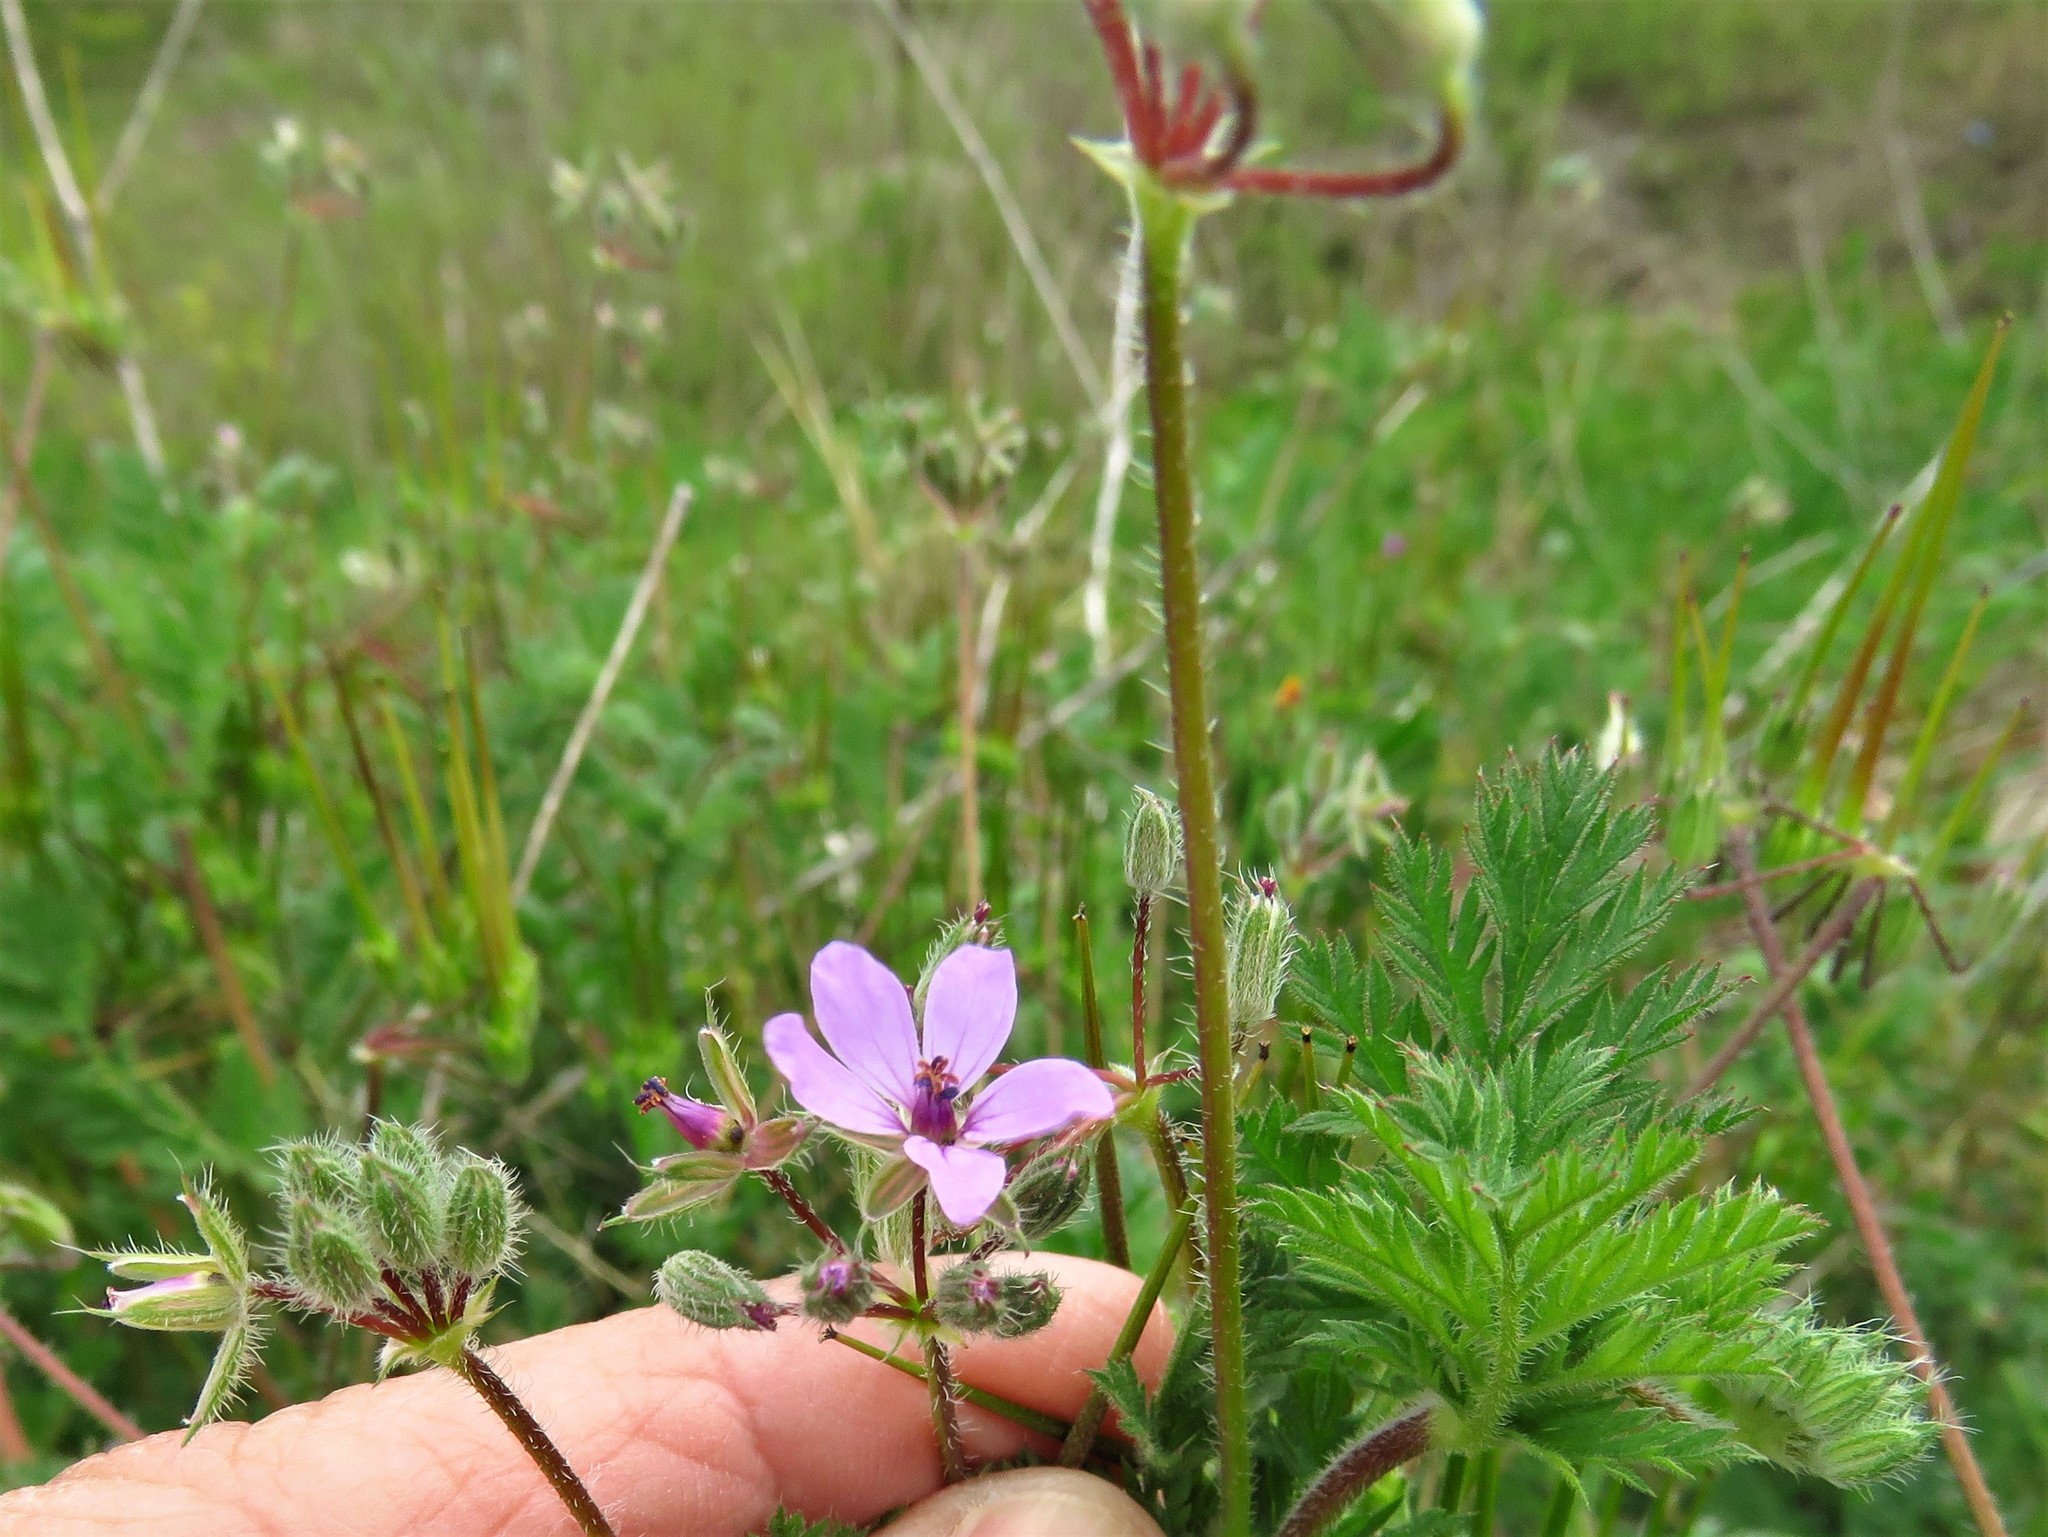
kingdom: Plantae
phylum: Tracheophyta
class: Magnoliopsida
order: Geraniales
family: Geraniaceae
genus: Erodium
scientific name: Erodium cicutarium
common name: Common stork's-bill
